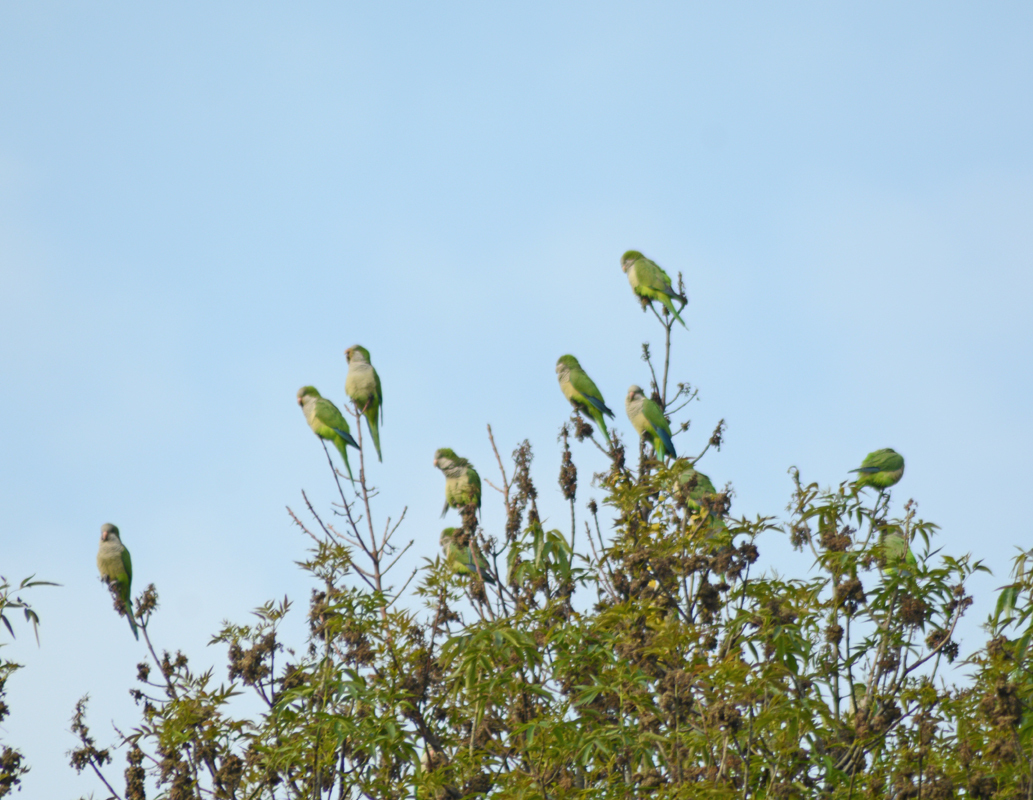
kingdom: Animalia
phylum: Chordata
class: Aves
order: Psittaciformes
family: Psittacidae
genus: Myiopsitta
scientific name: Myiopsitta monachus
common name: Monk parakeet
